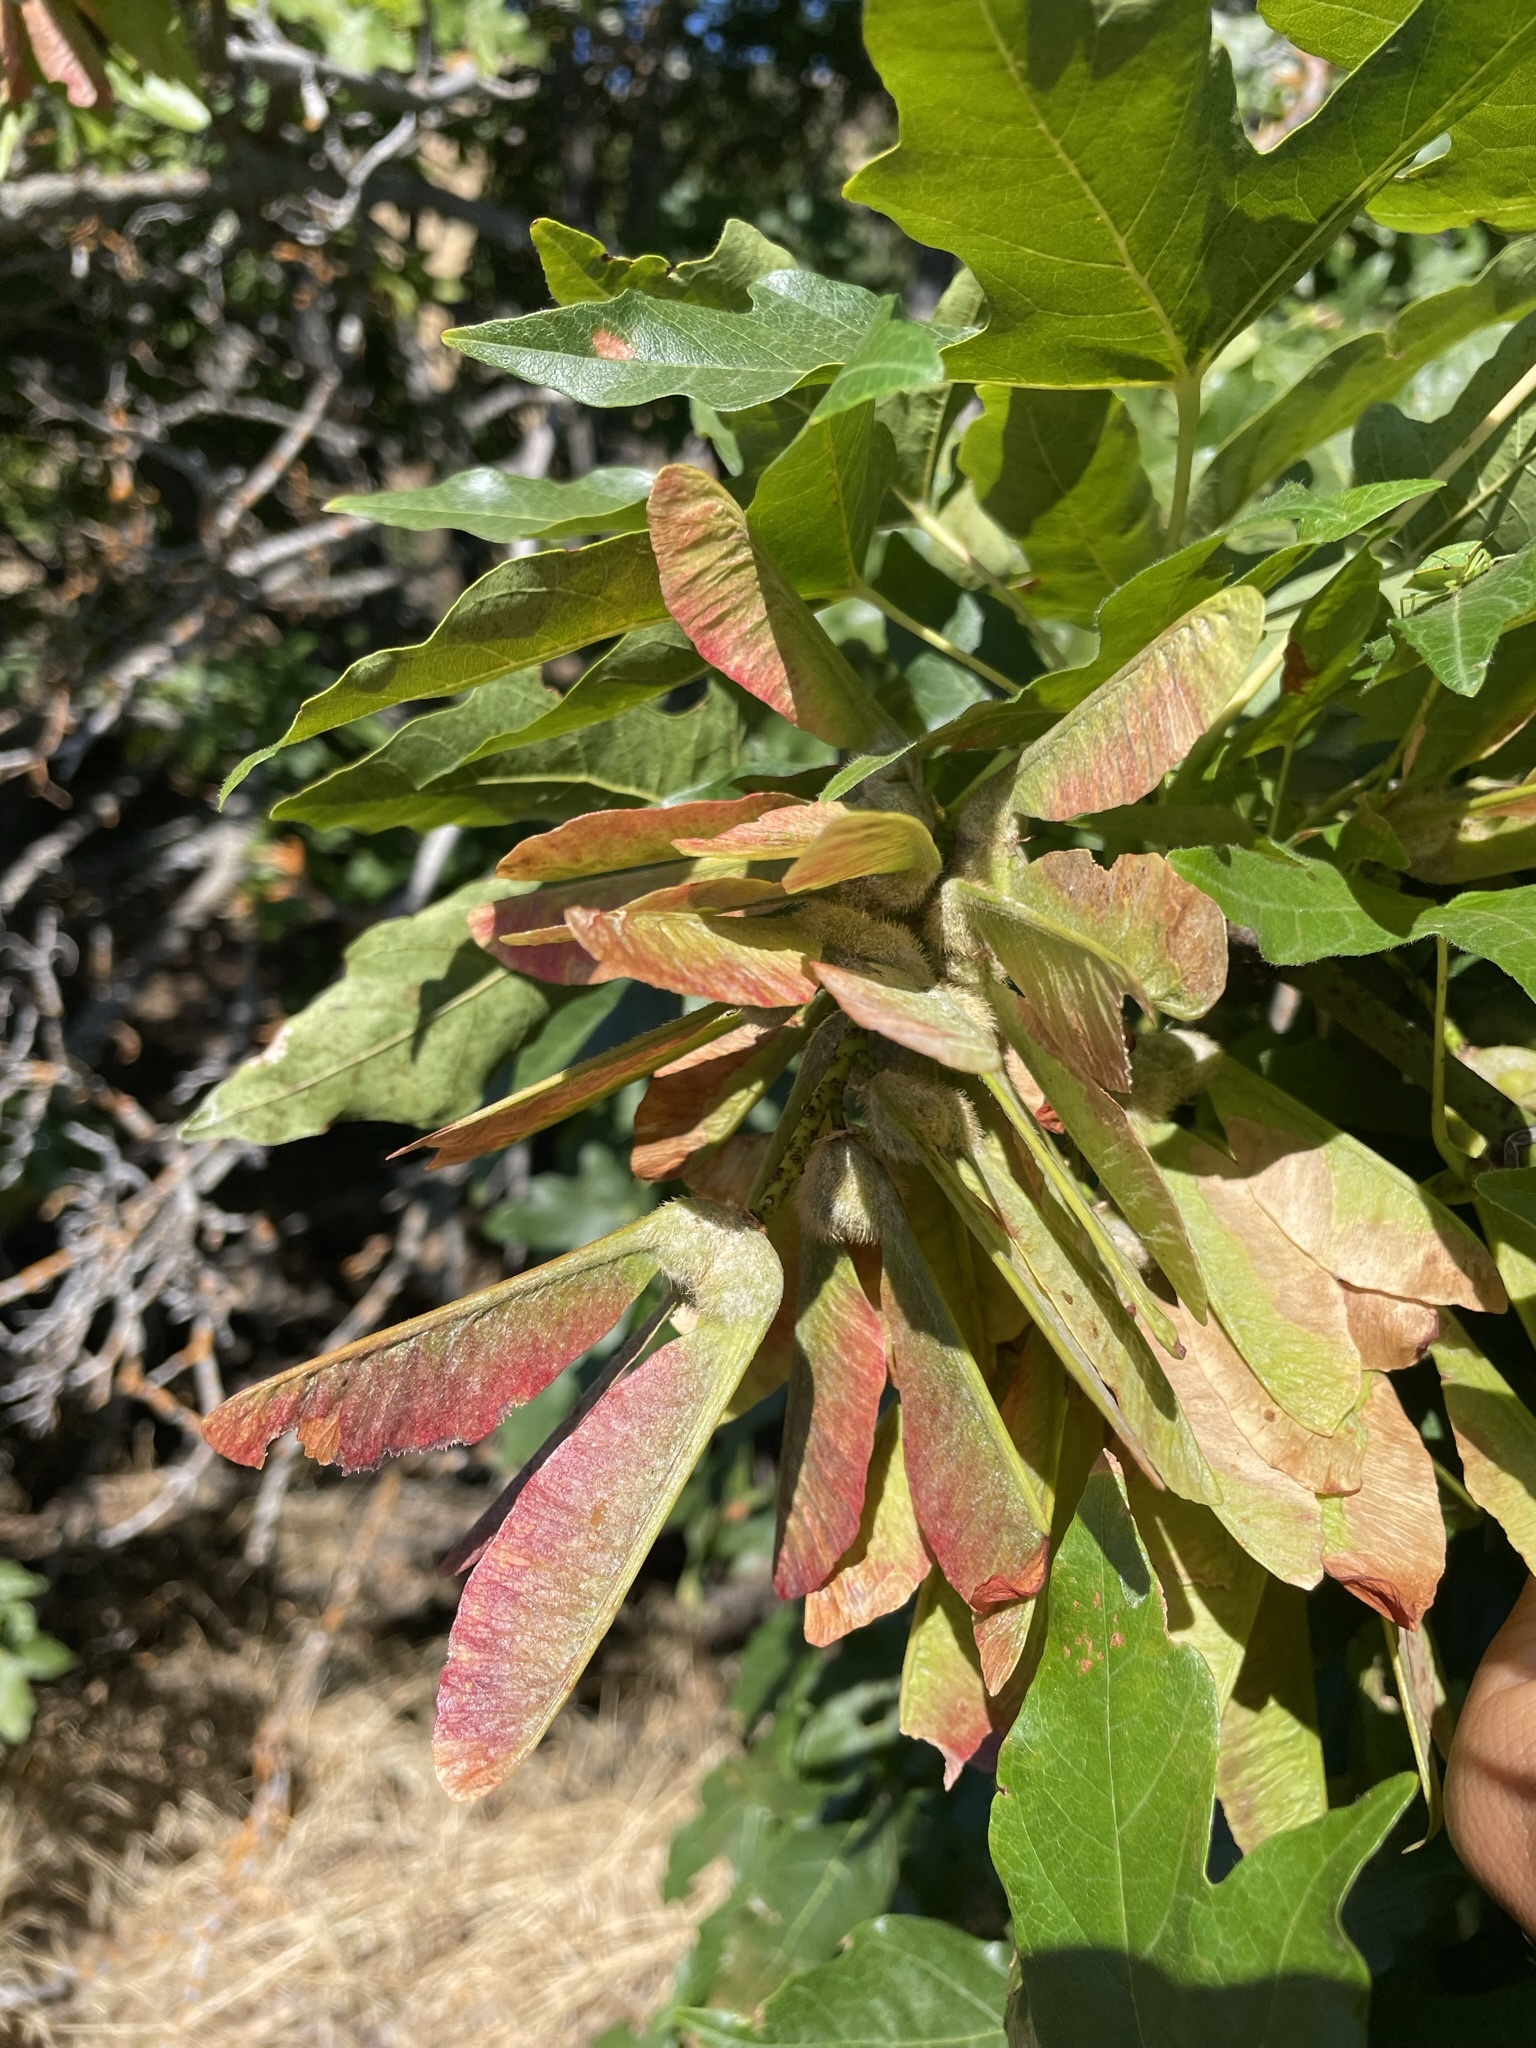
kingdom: Plantae
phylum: Tracheophyta
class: Magnoliopsida
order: Sapindales
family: Sapindaceae
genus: Acer
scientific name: Acer macrophyllum
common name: Oregon maple
